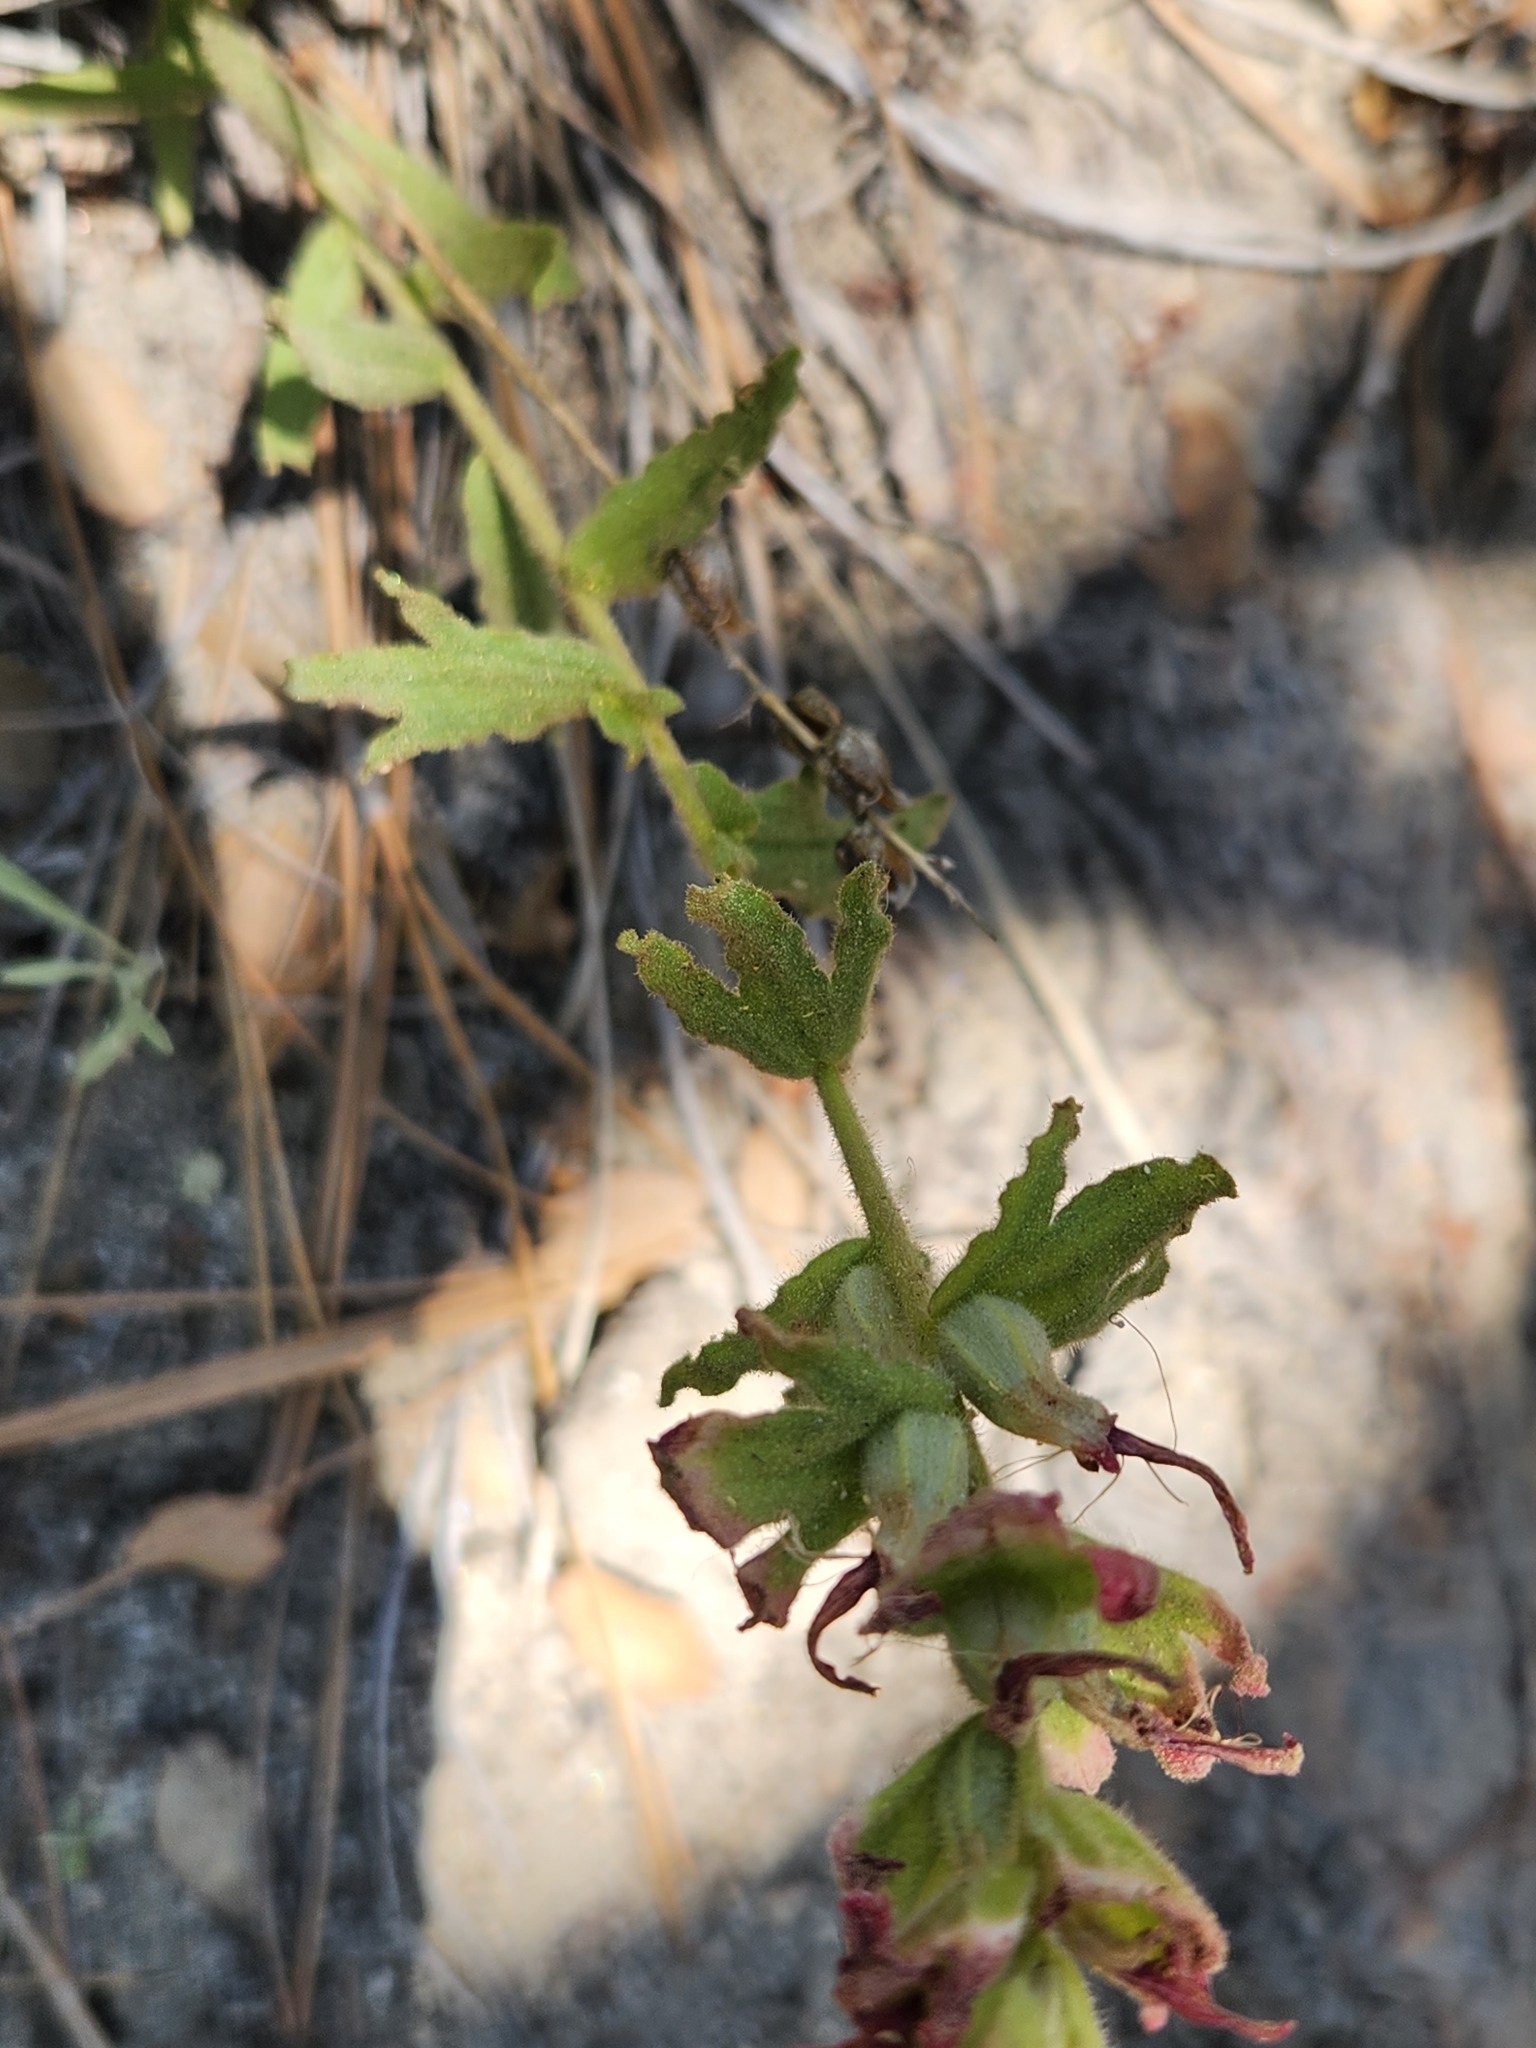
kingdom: Plantae
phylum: Tracheophyta
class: Magnoliopsida
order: Lamiales
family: Orobanchaceae
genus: Castilleja
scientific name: Castilleja martini
